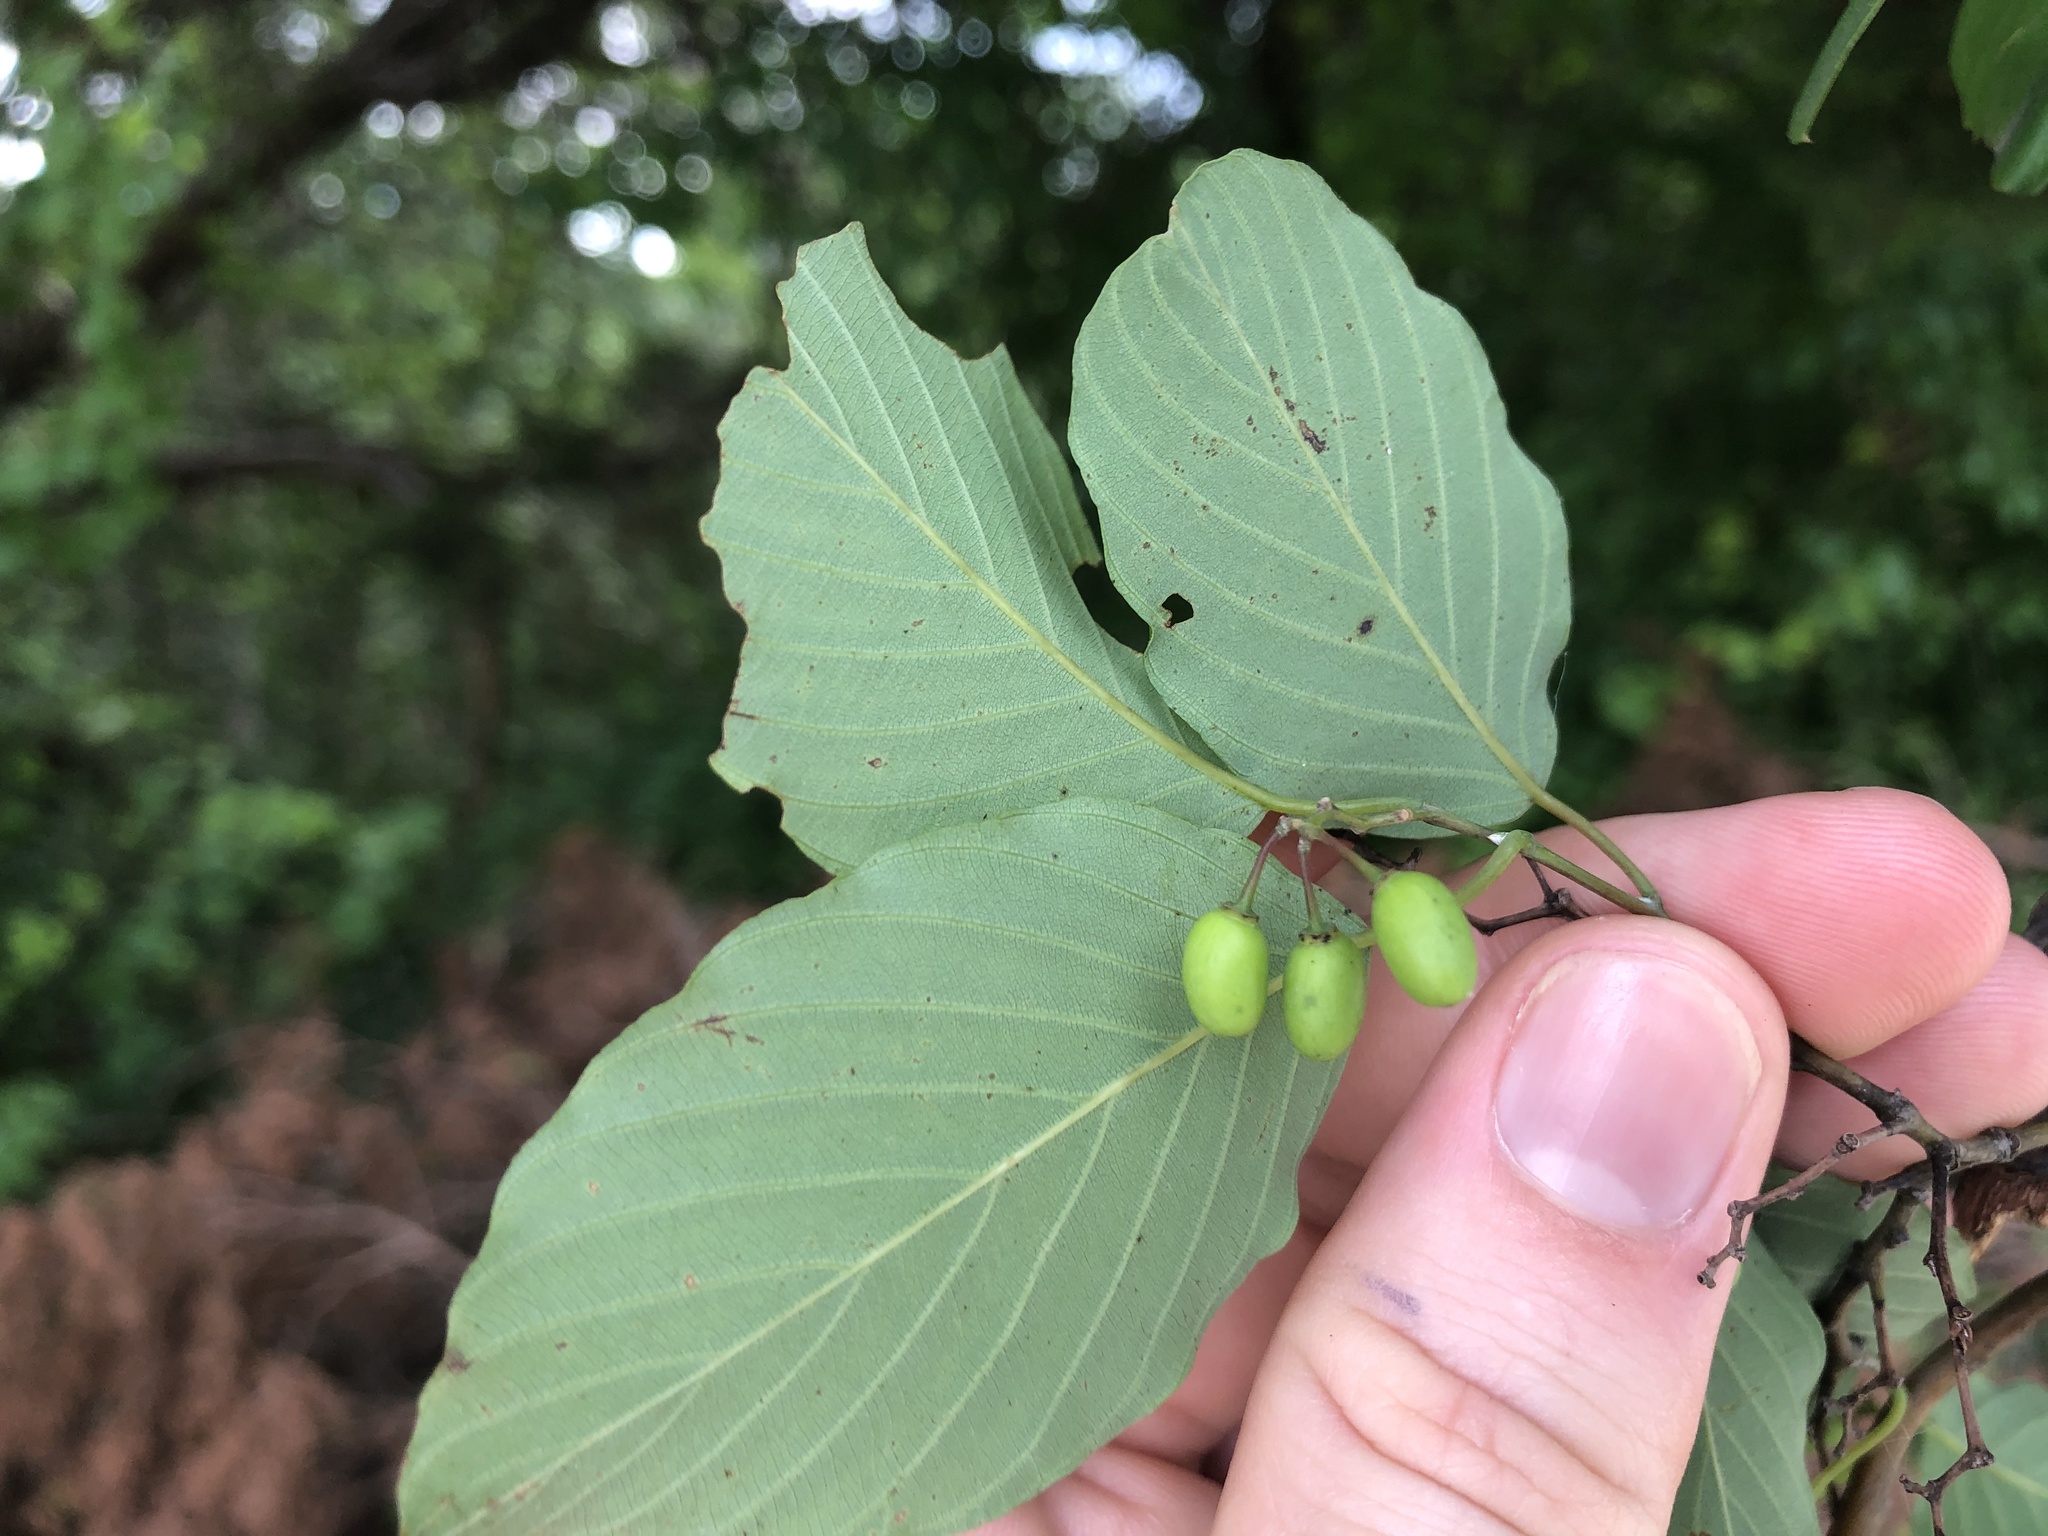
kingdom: Plantae
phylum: Tracheophyta
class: Magnoliopsida
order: Rosales
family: Rhamnaceae
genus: Berchemia
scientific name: Berchemia scandens
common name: Supplejack
